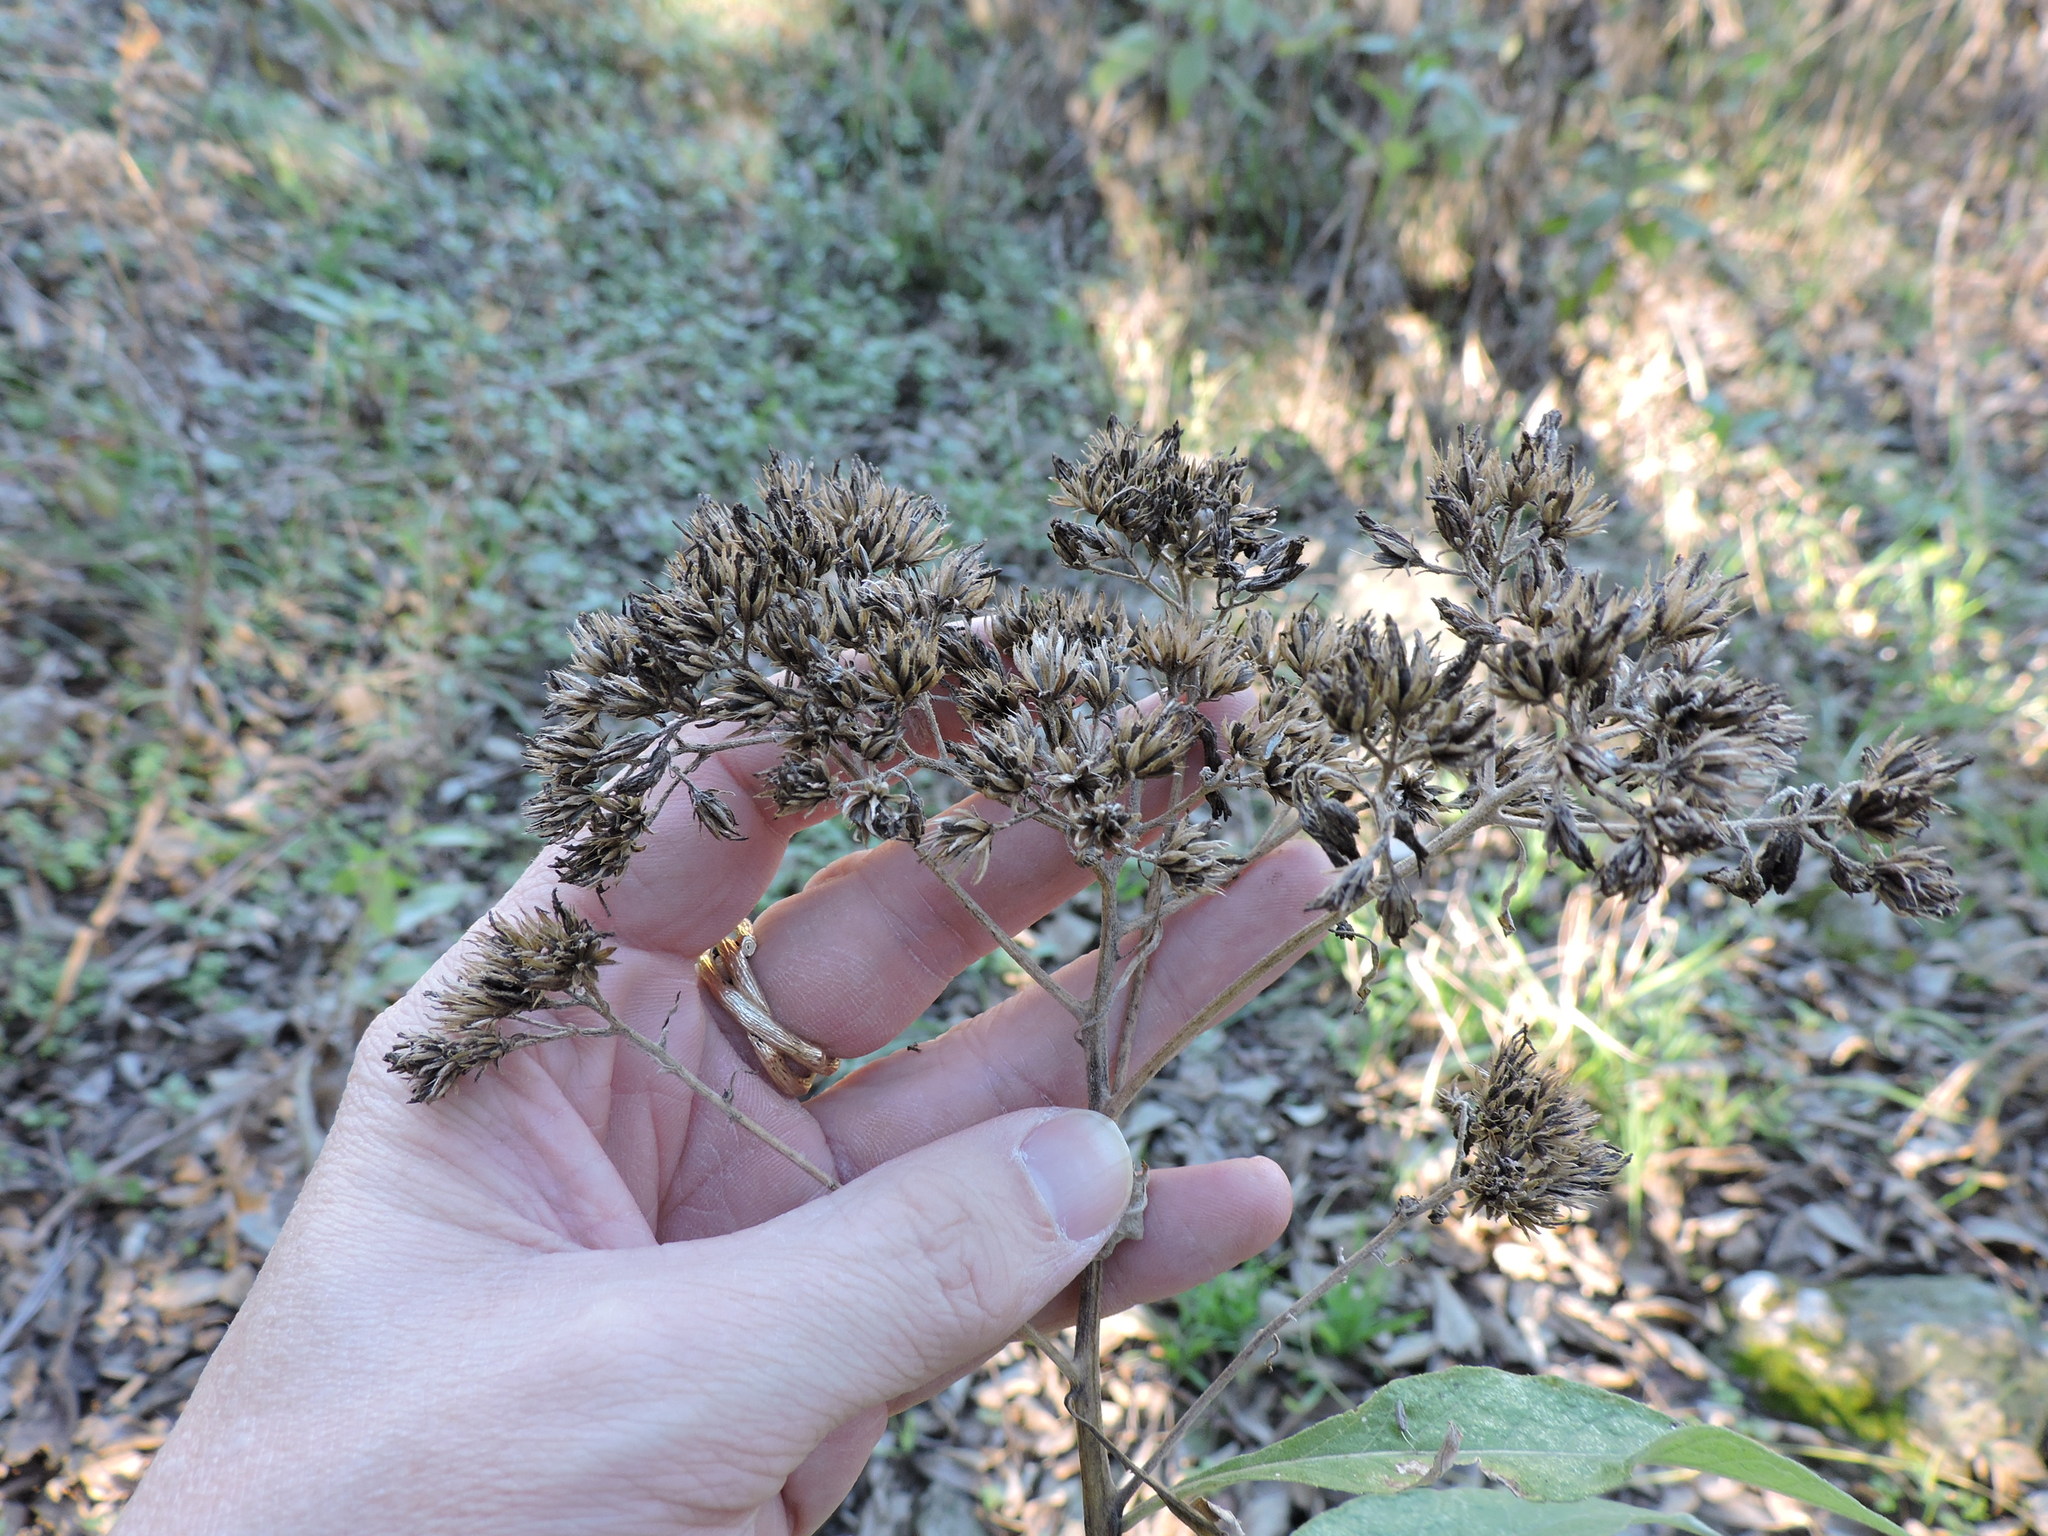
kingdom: Plantae
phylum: Tracheophyta
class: Magnoliopsida
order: Asterales
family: Asteraceae
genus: Verbesina
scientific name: Verbesina virginica
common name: Frostweed
